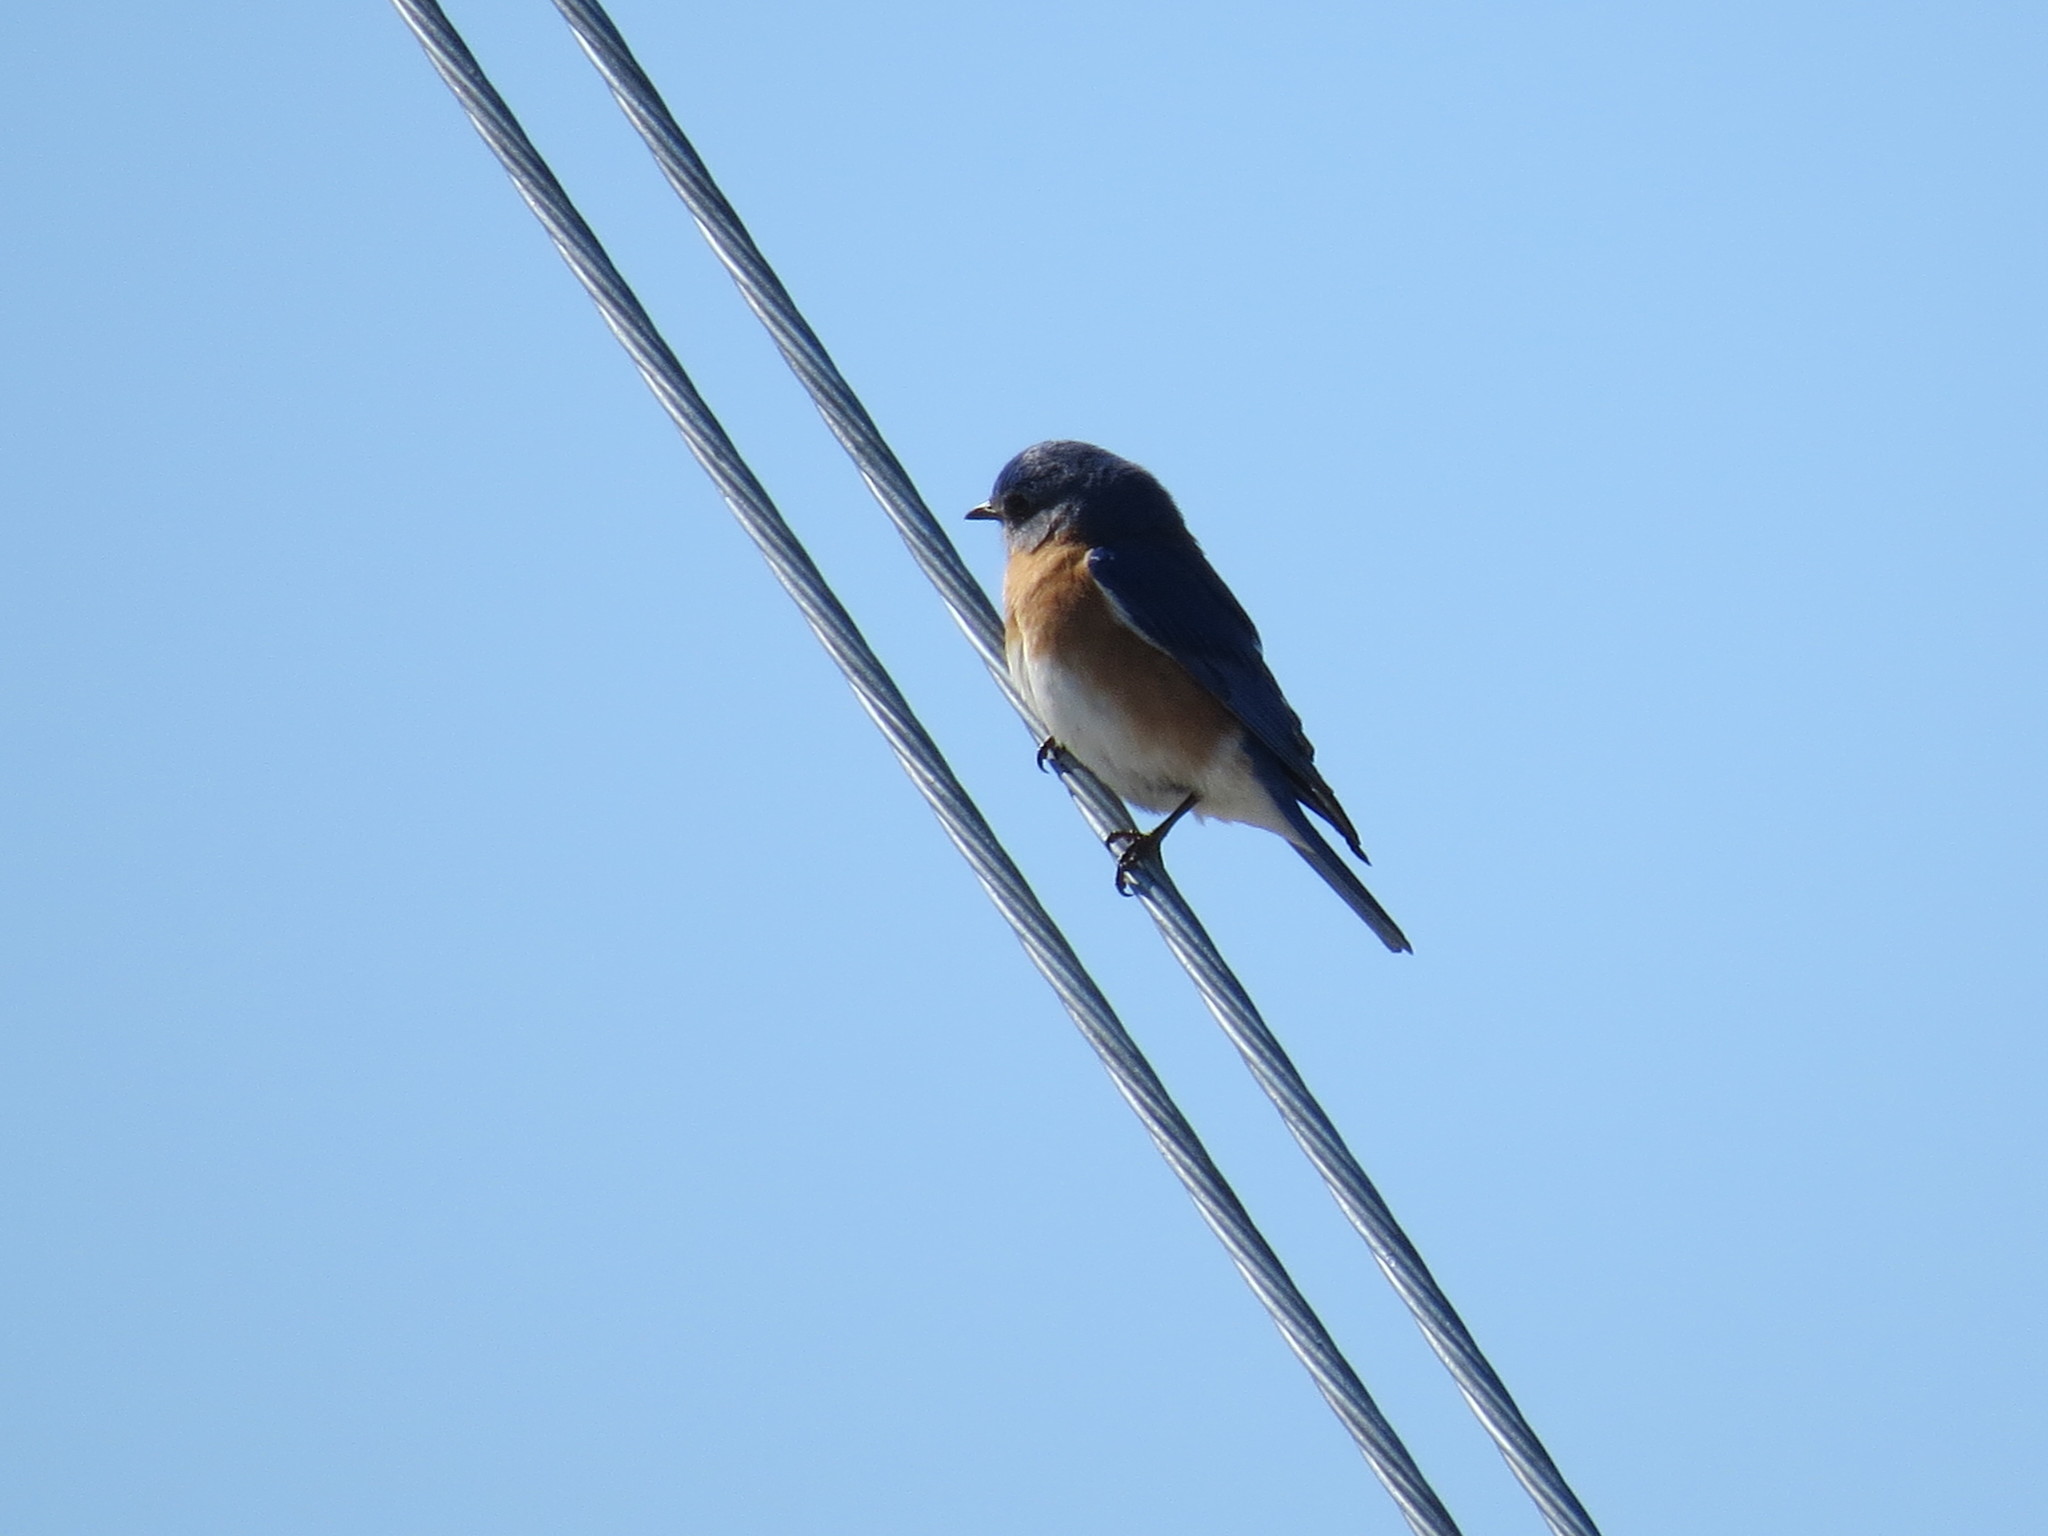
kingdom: Animalia
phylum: Chordata
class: Aves
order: Passeriformes
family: Turdidae
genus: Sialia
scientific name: Sialia sialis
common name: Eastern bluebird
